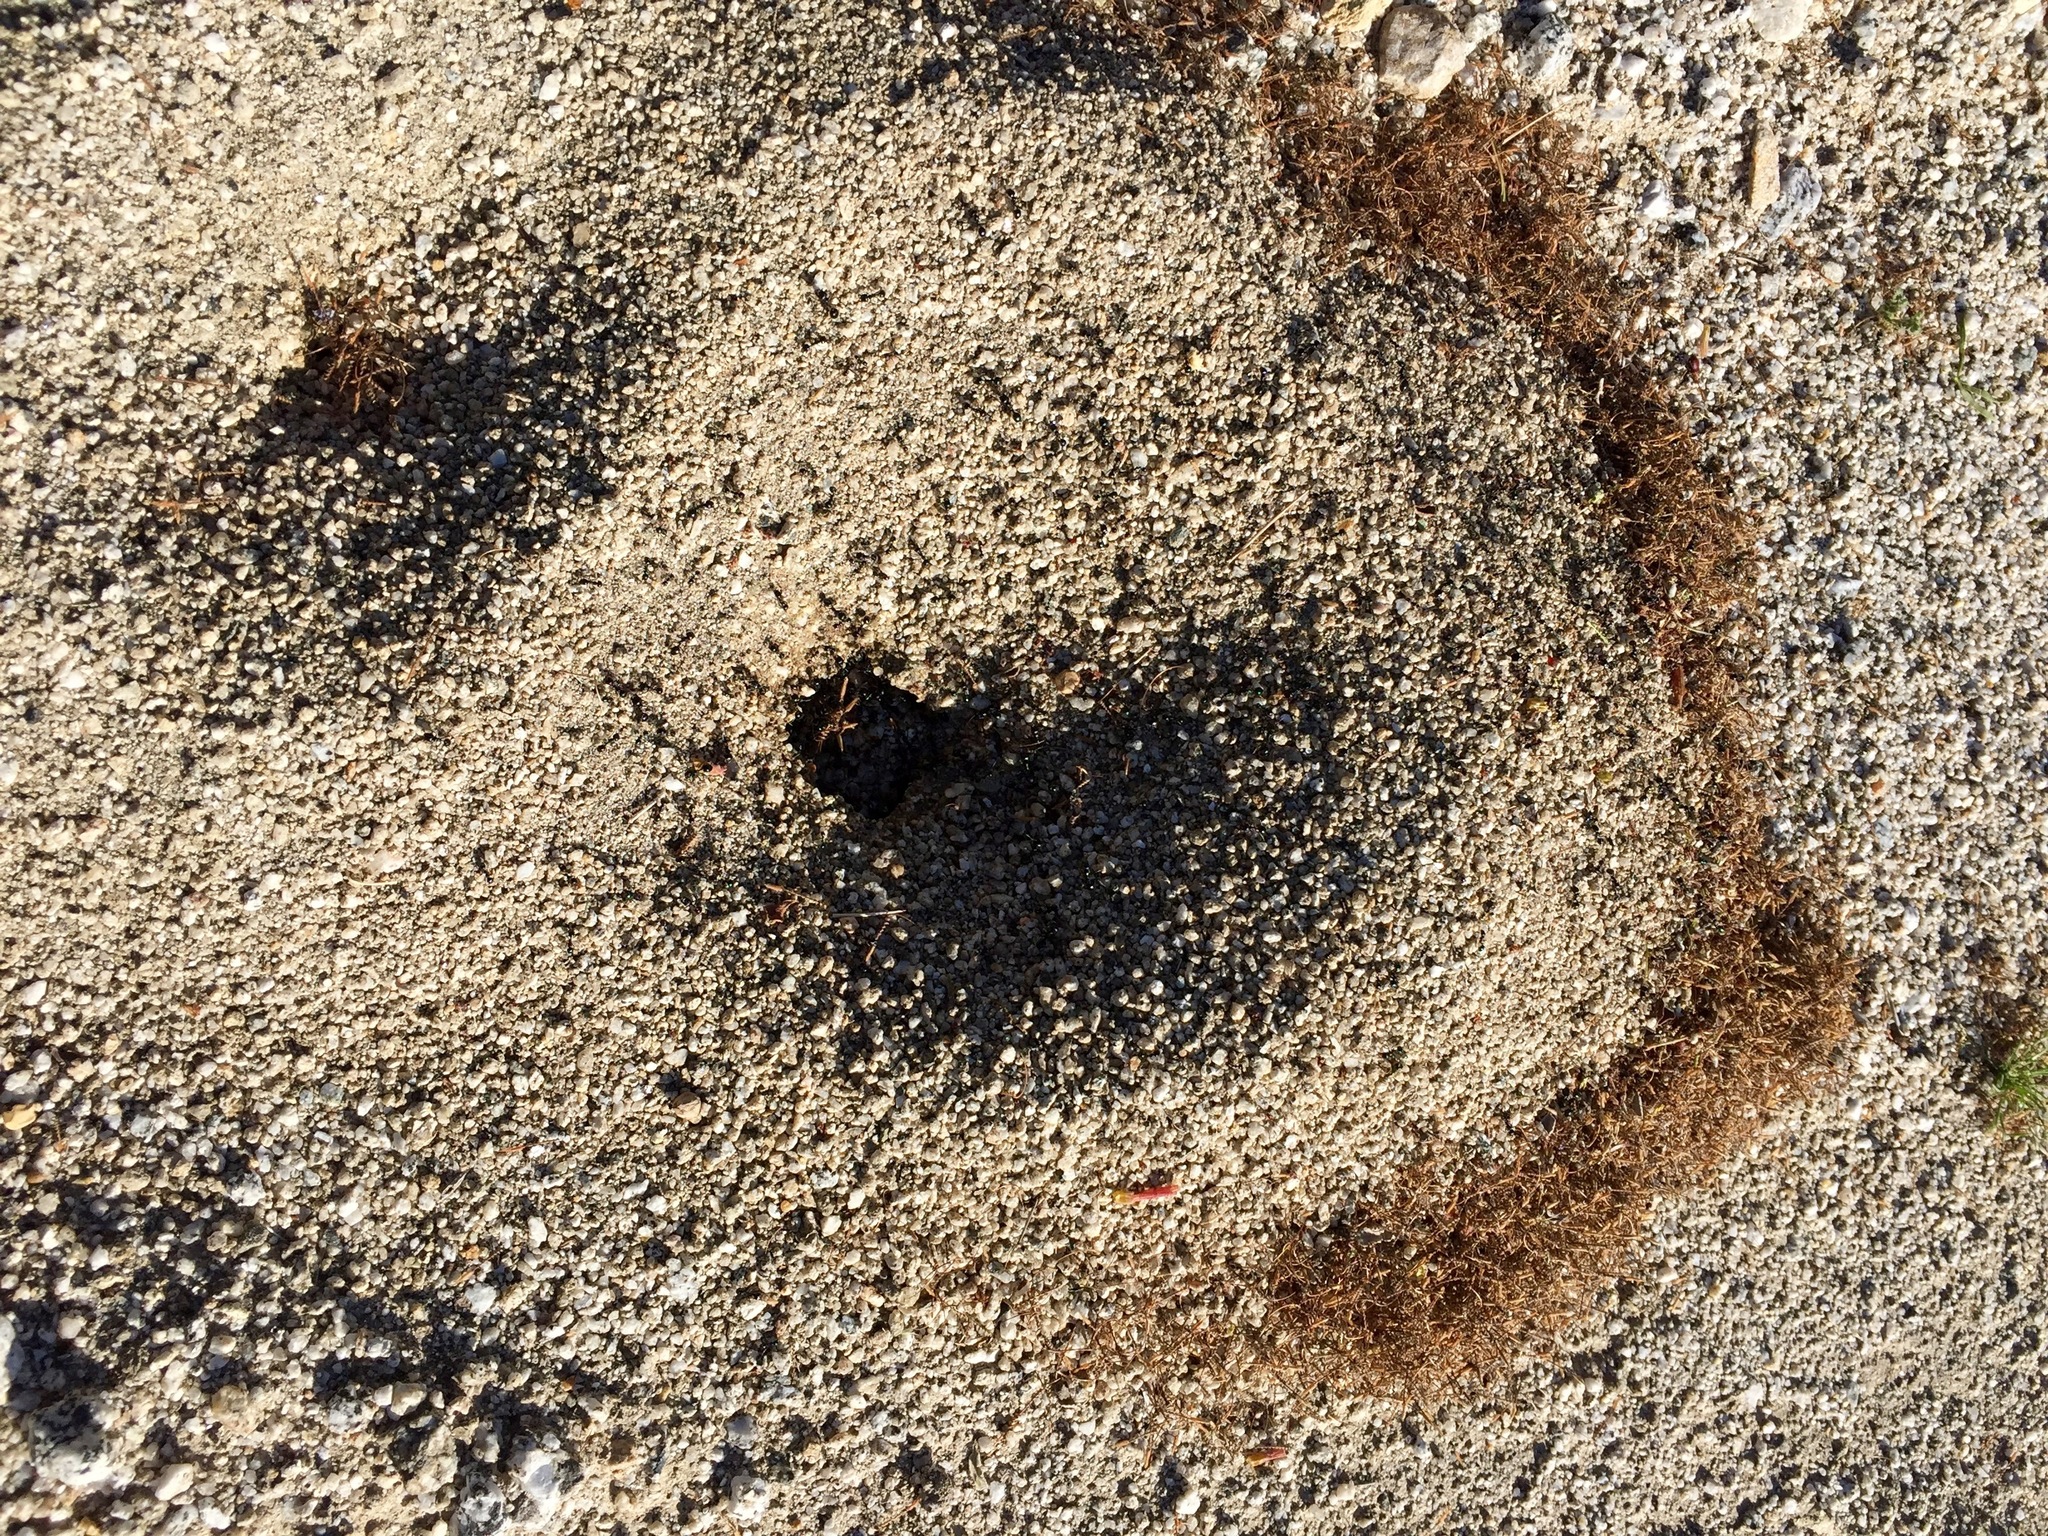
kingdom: Animalia
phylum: Arthropoda
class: Insecta
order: Hymenoptera
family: Formicidae
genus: Messor
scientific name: Messor pergandei
